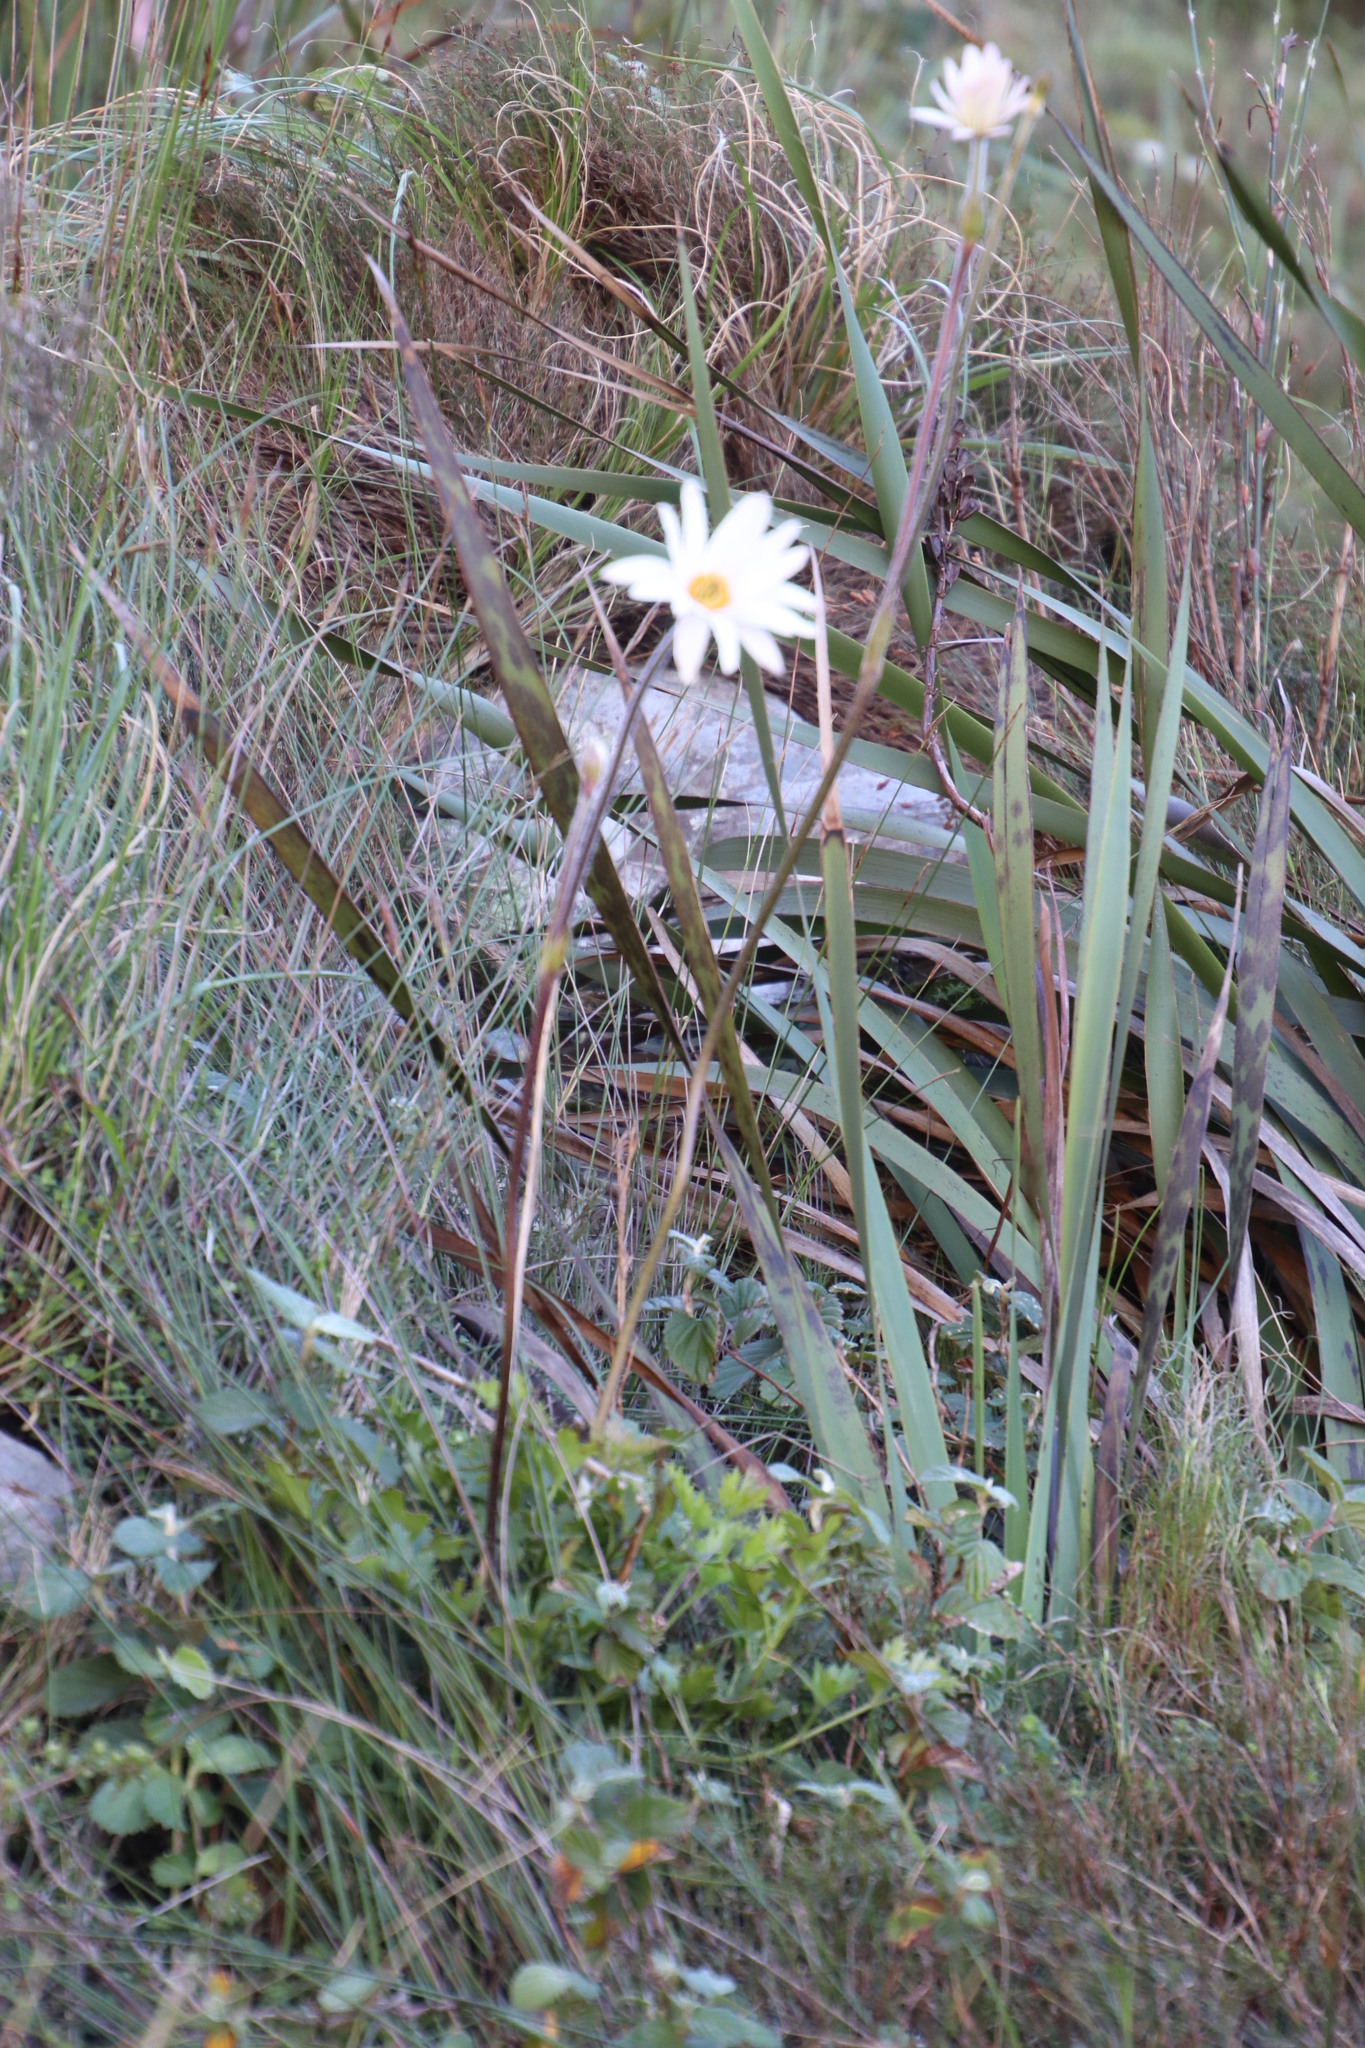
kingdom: Plantae
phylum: Tracheophyta
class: Magnoliopsida
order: Ranunculales
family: Ranunculaceae
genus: Knowltonia
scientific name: Knowltonia tenuifolia
